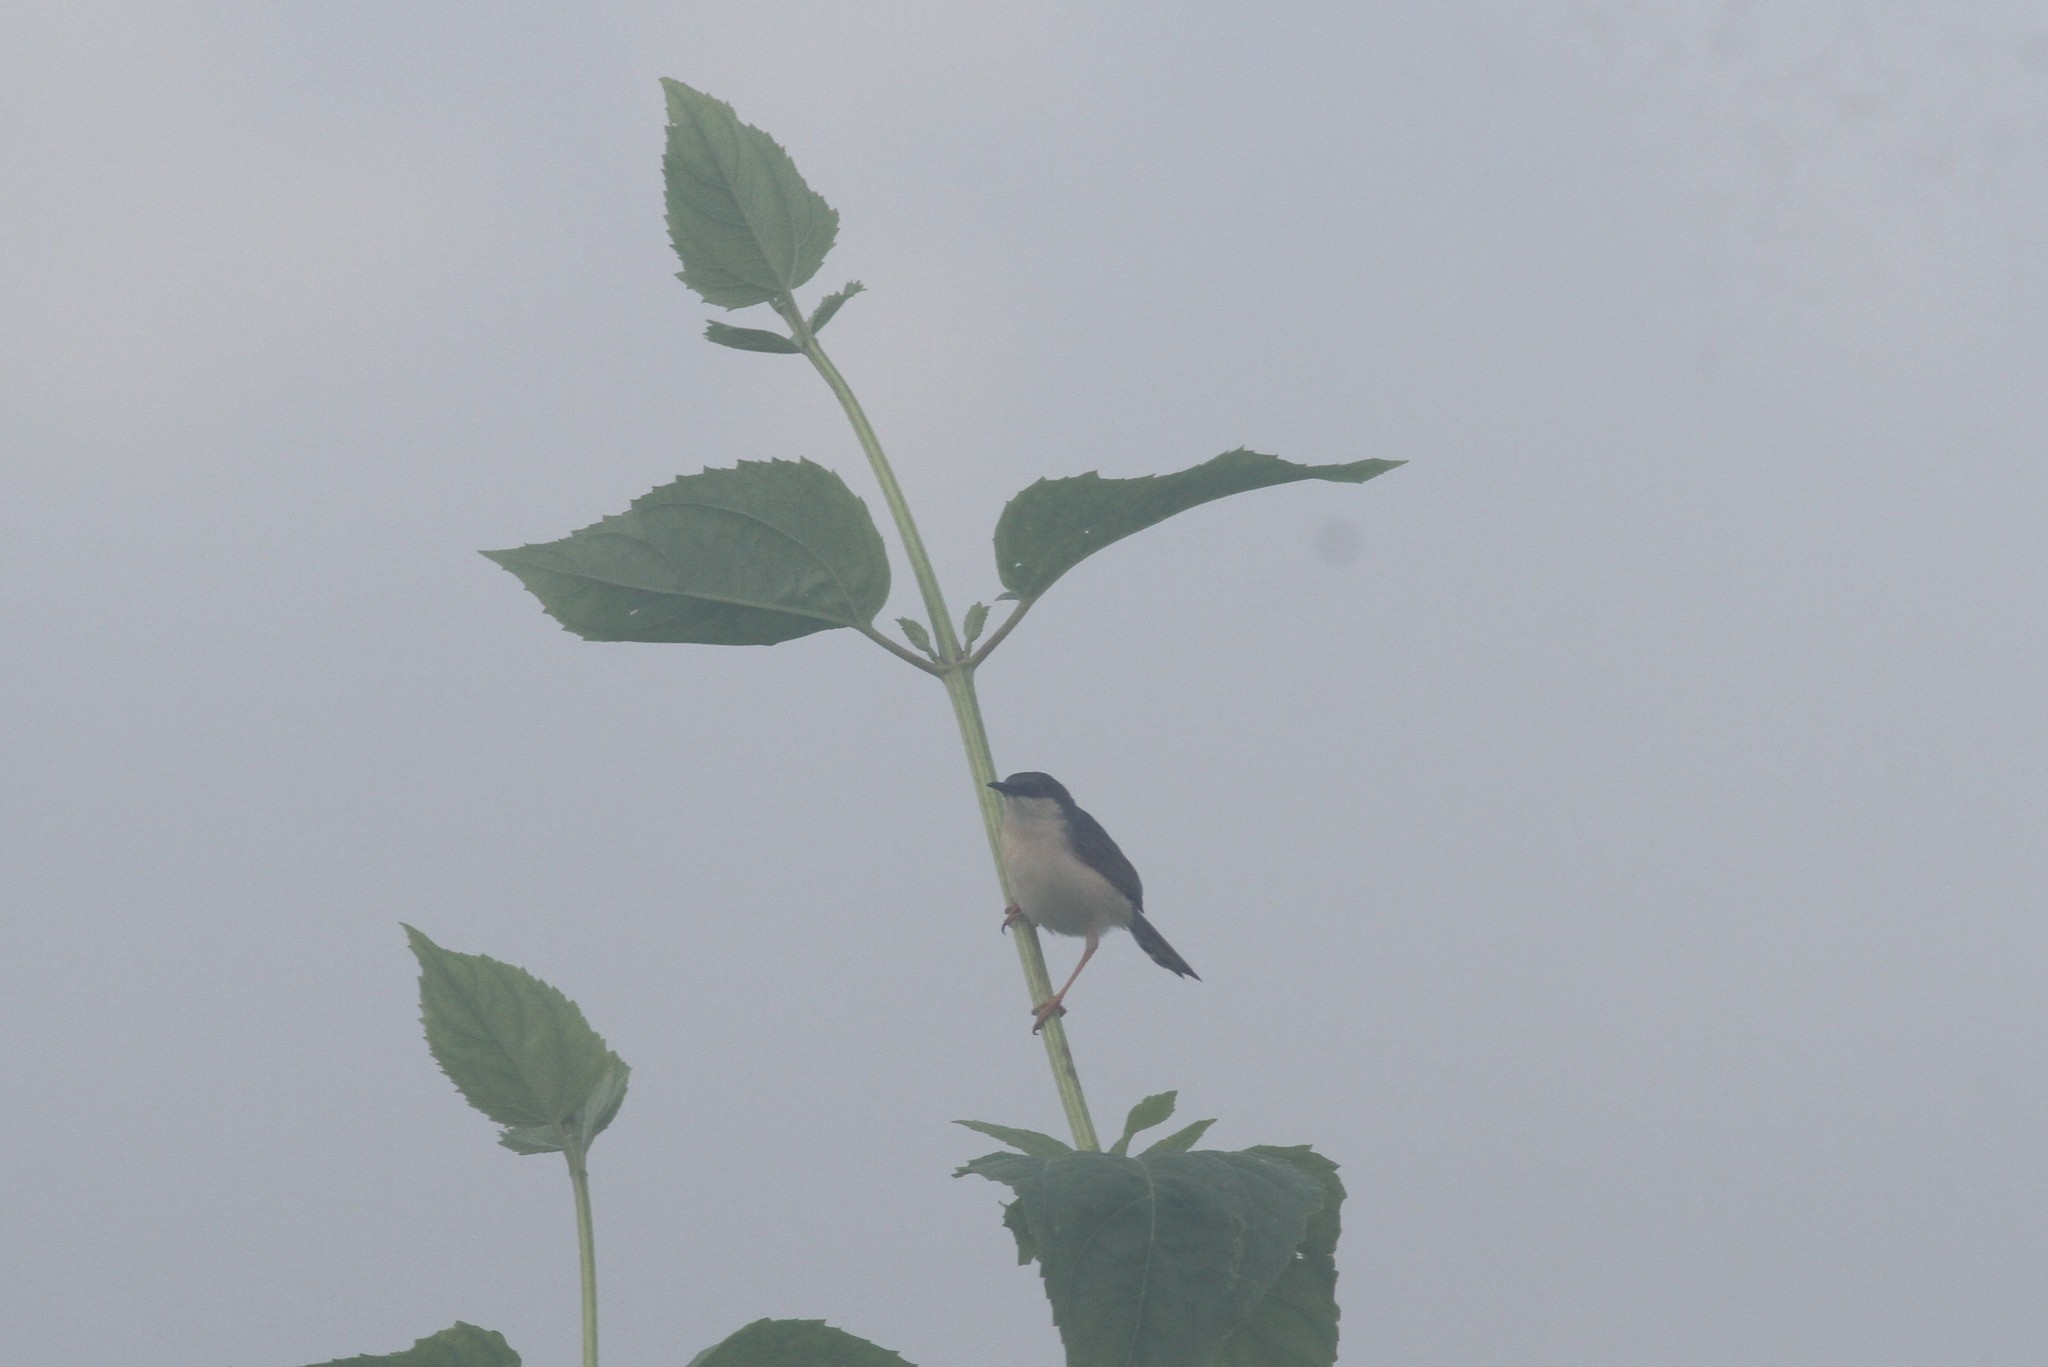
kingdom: Animalia
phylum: Chordata
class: Aves
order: Passeriformes
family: Cisticolidae
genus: Prinia
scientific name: Prinia socialis
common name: Ashy prinia
